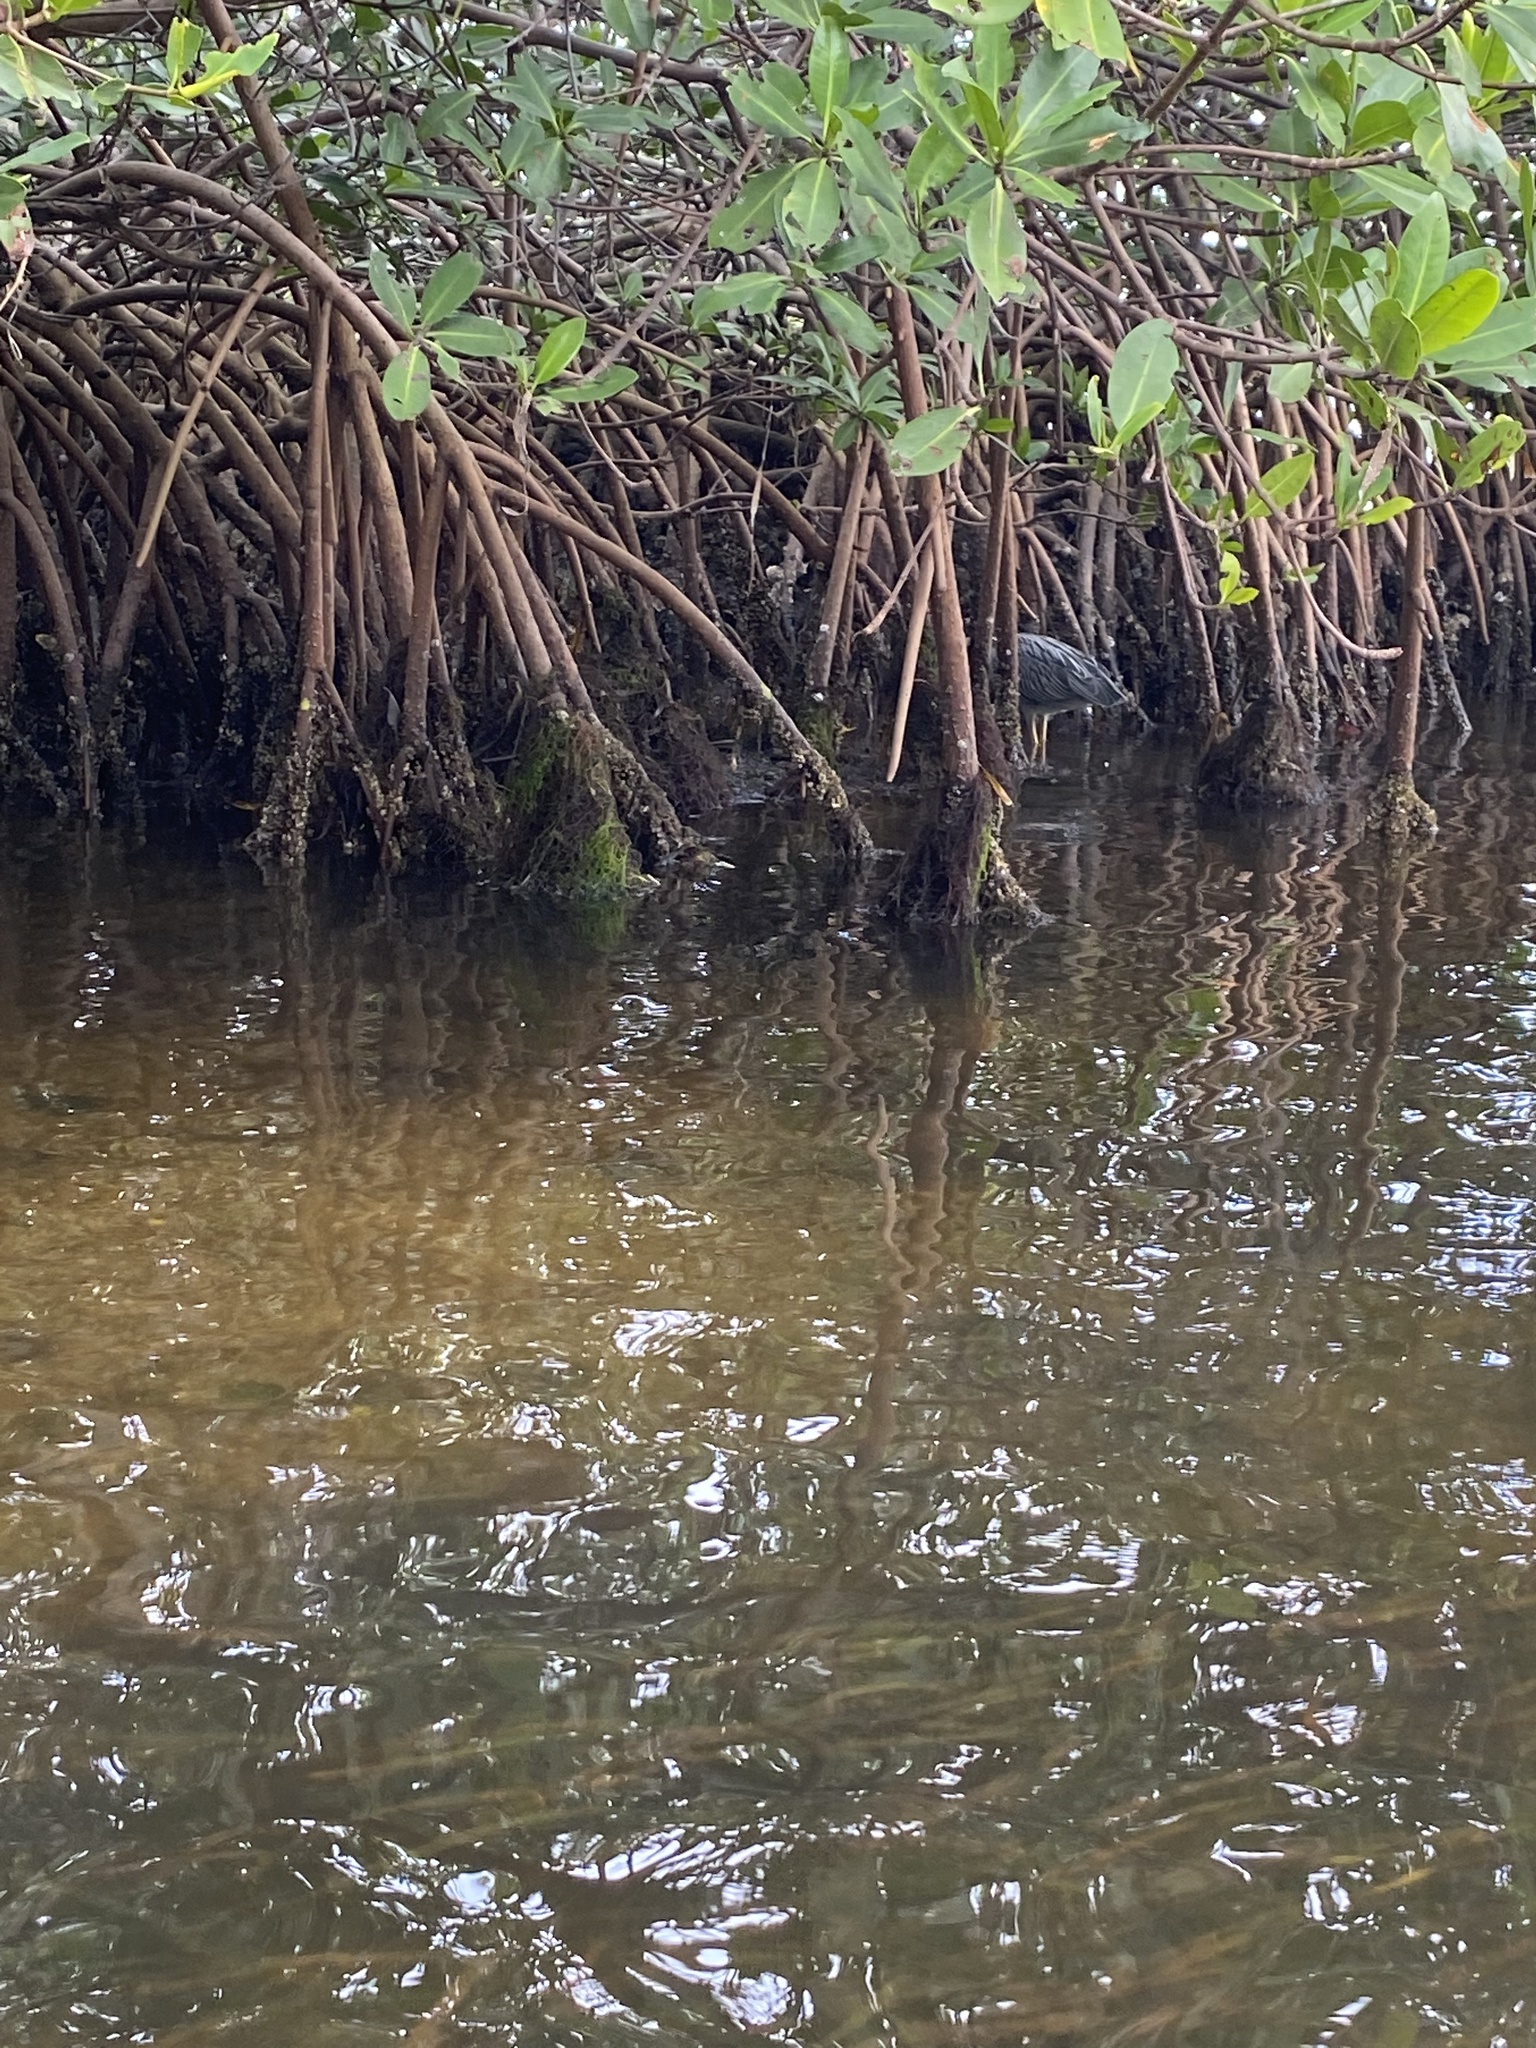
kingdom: Animalia
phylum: Chordata
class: Aves
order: Pelecaniformes
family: Ardeidae
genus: Nyctanassa
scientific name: Nyctanassa violacea
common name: Yellow-crowned night heron
